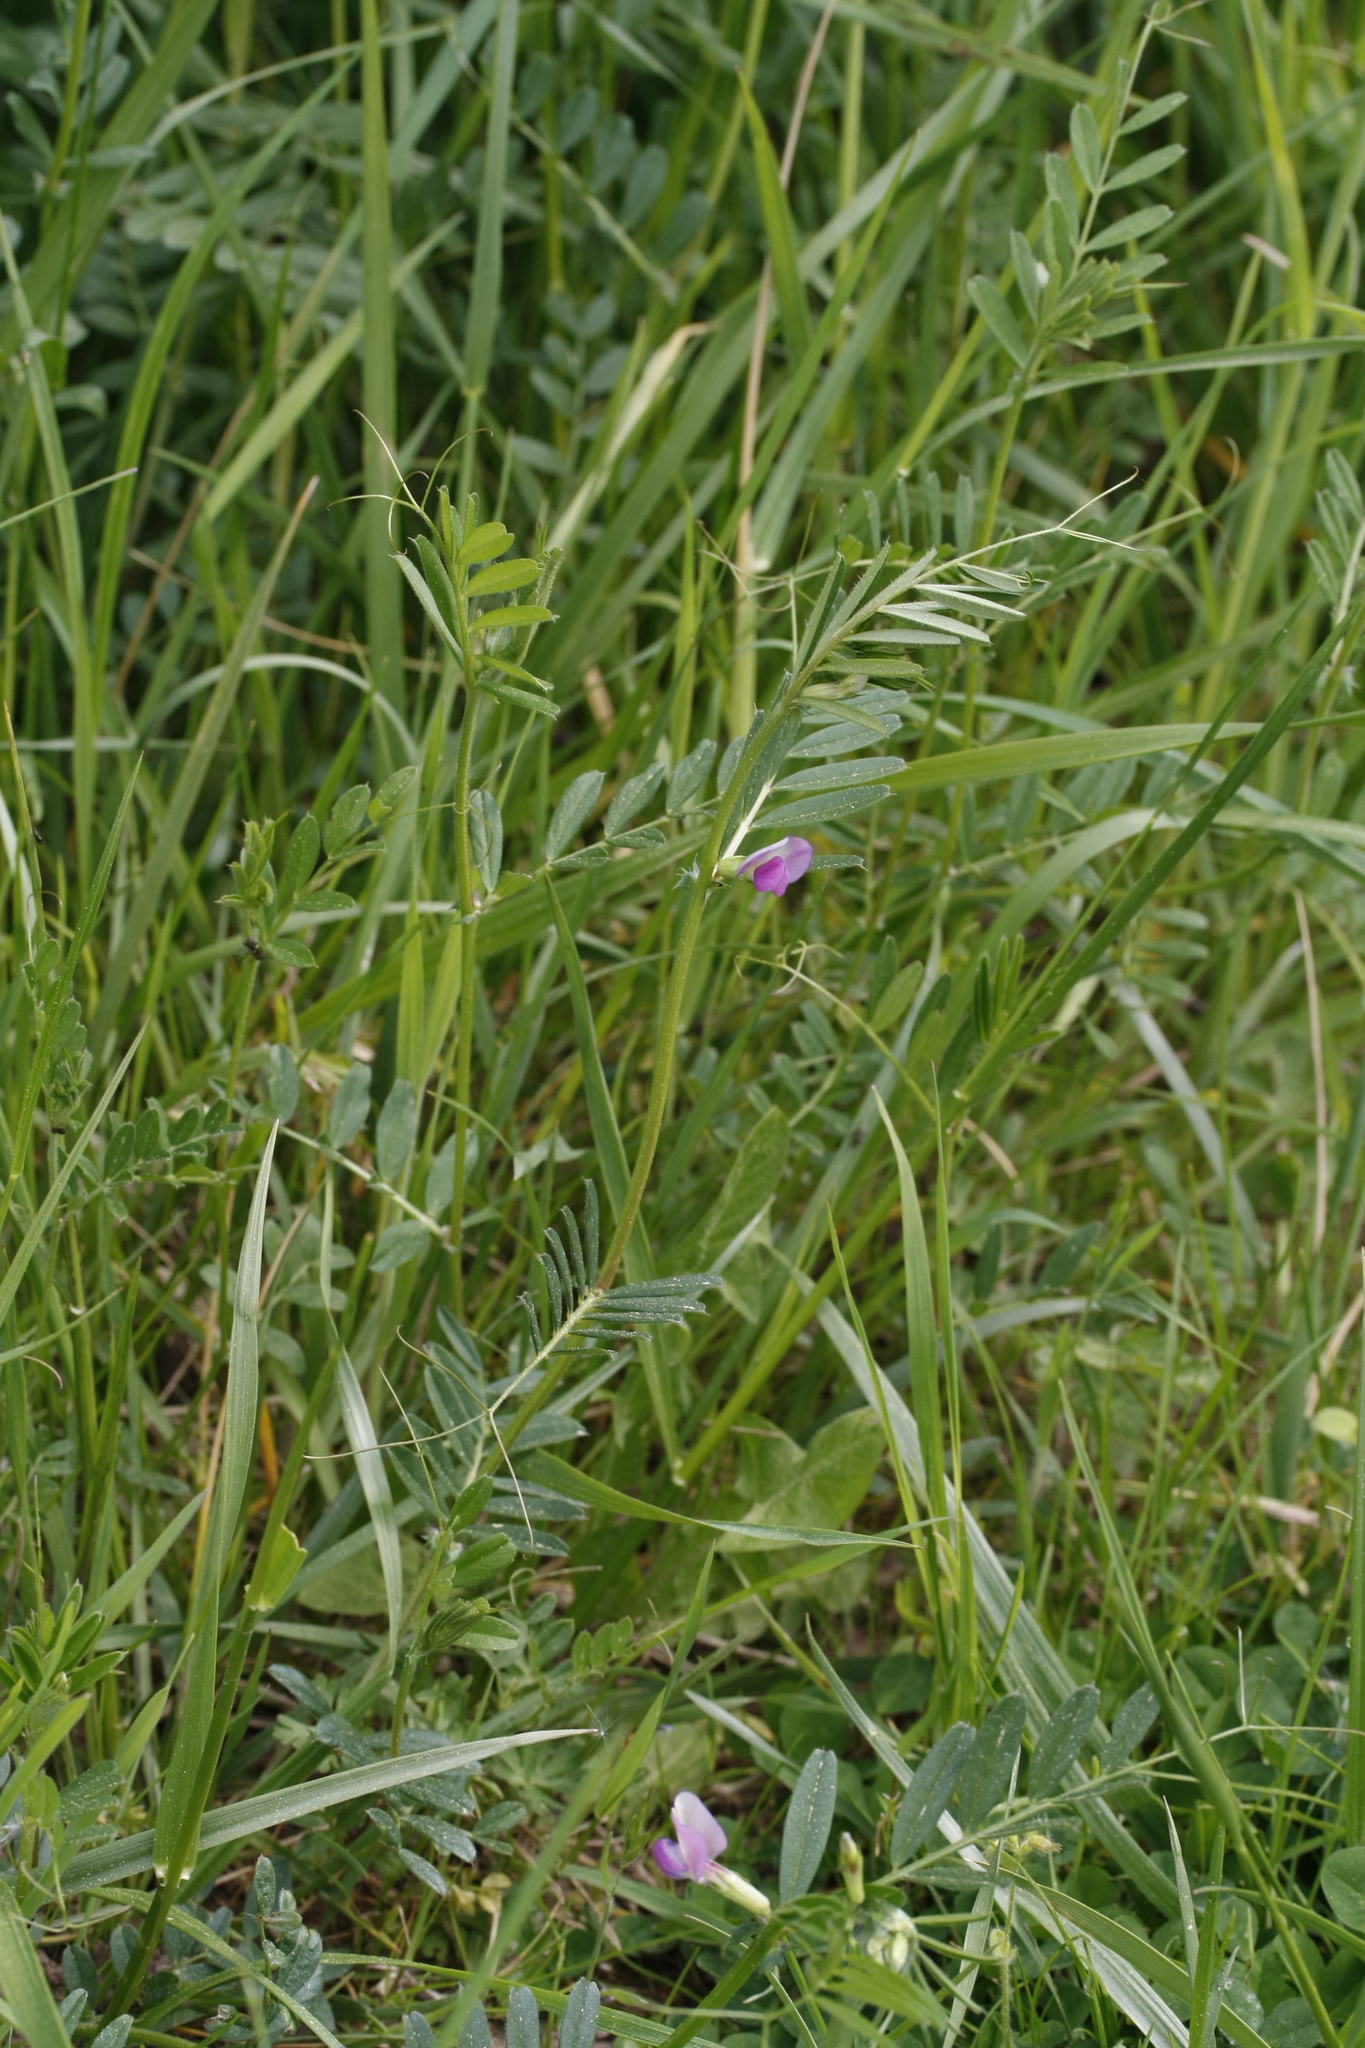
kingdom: Plantae
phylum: Tracheophyta
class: Magnoliopsida
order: Fabales
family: Fabaceae
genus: Vicia
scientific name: Vicia sativa
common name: Garden vetch
